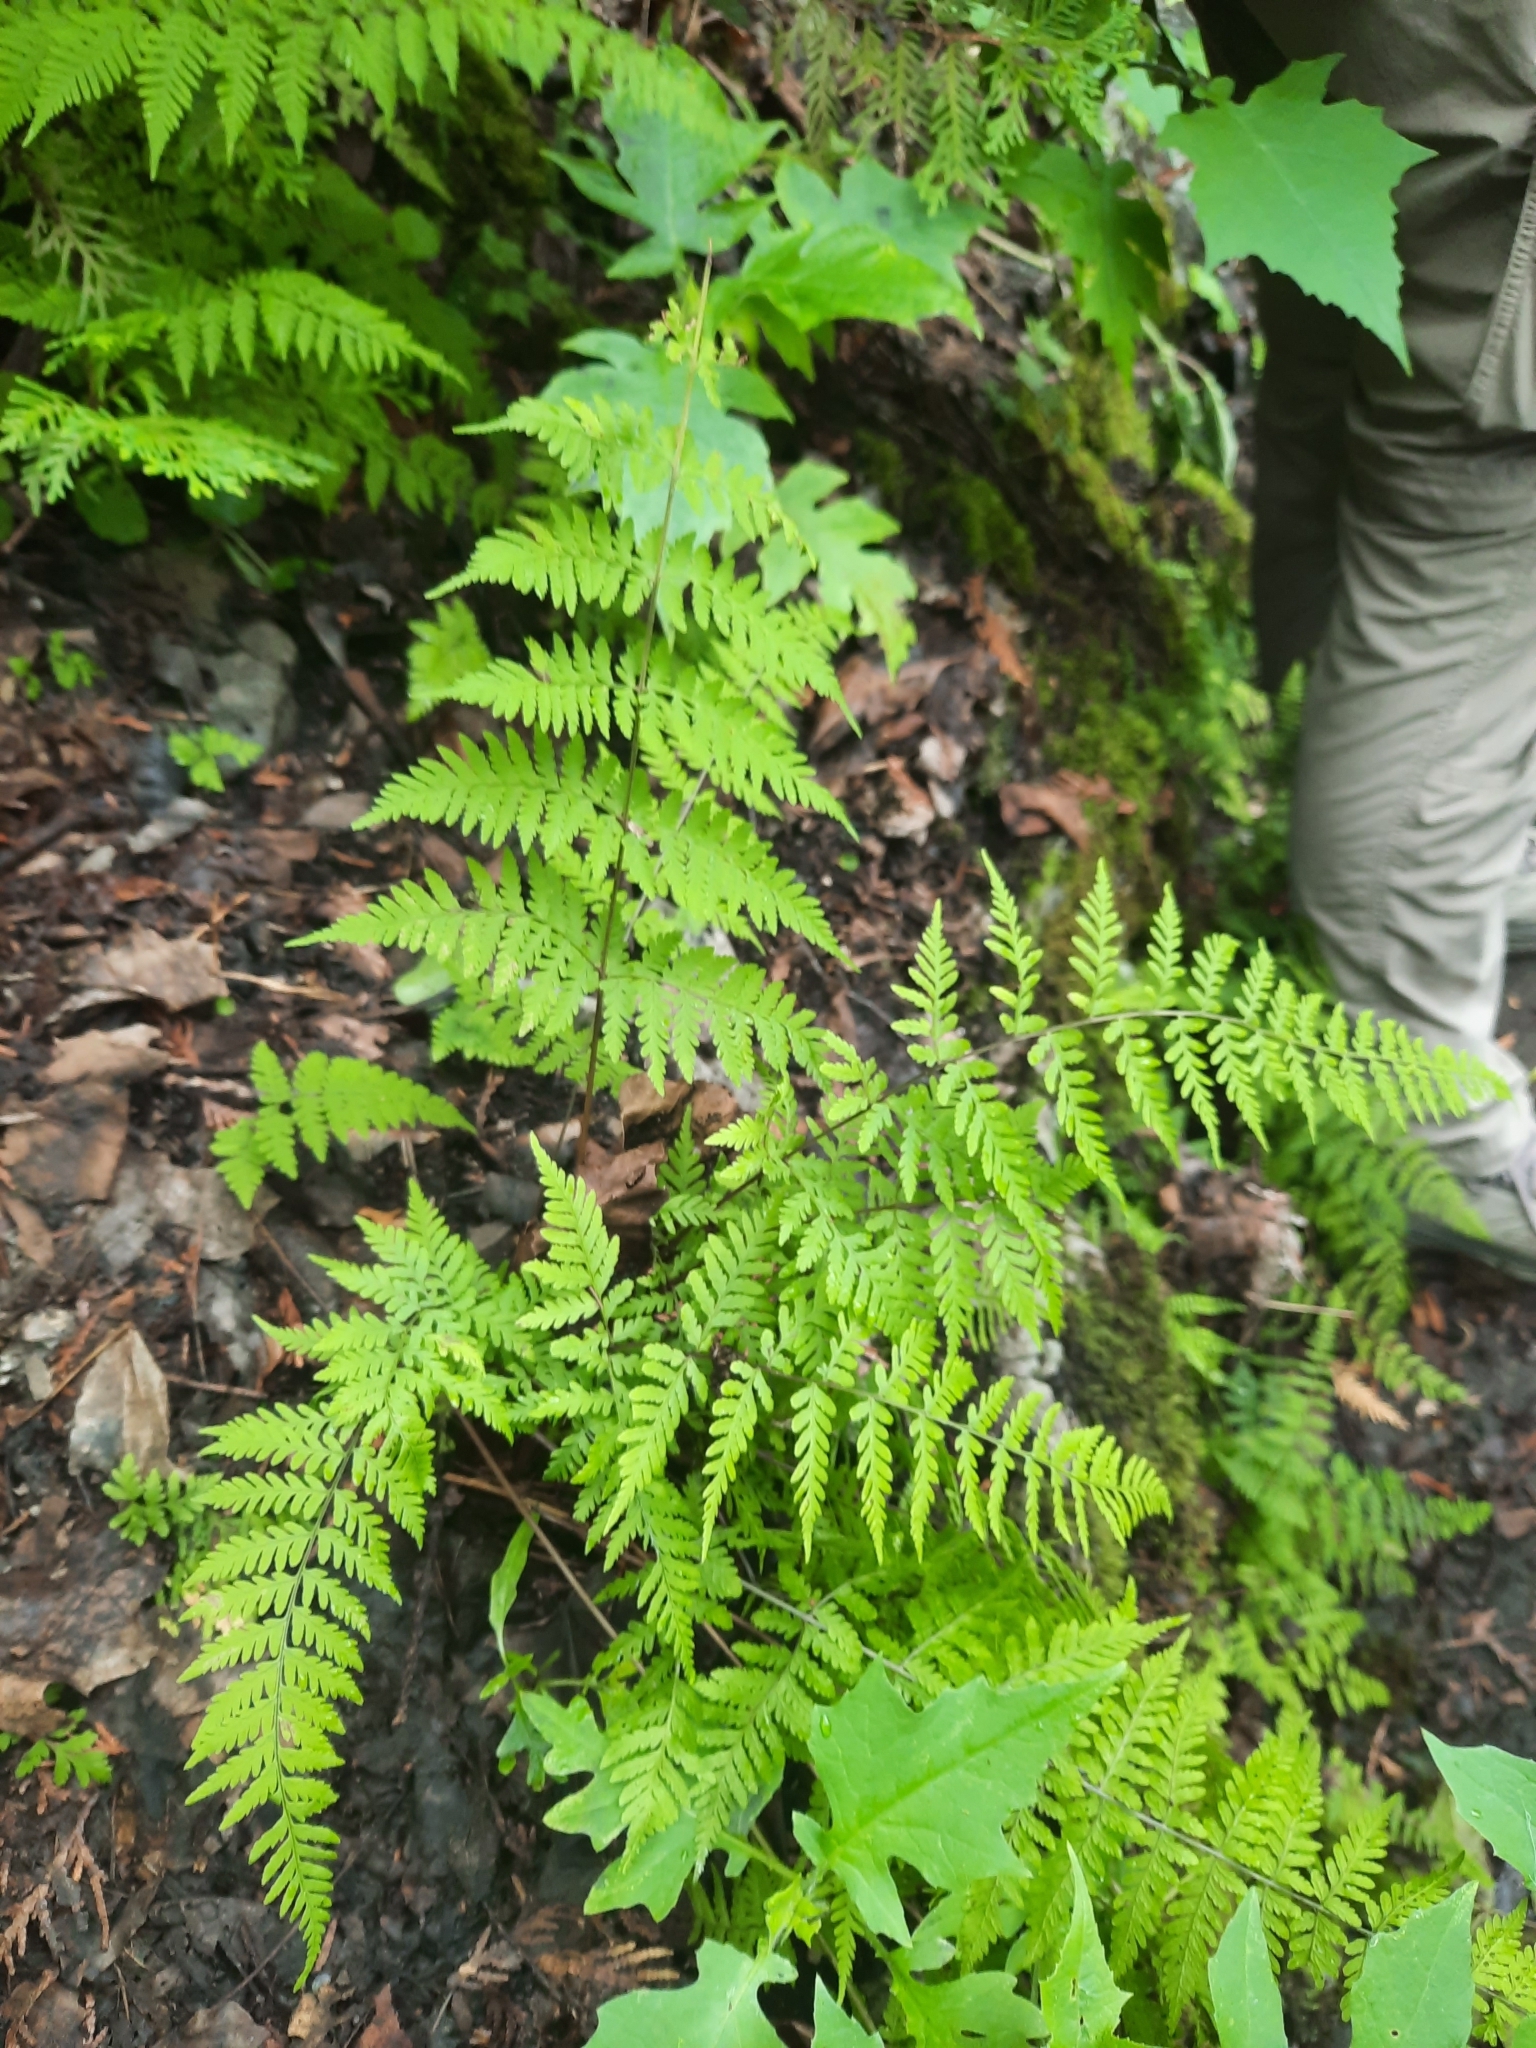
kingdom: Plantae
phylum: Tracheophyta
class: Polypodiopsida
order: Polypodiales
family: Cystopteridaceae
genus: Cystopteris
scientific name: Cystopteris bulbifera
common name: Bulblet bladder fern
